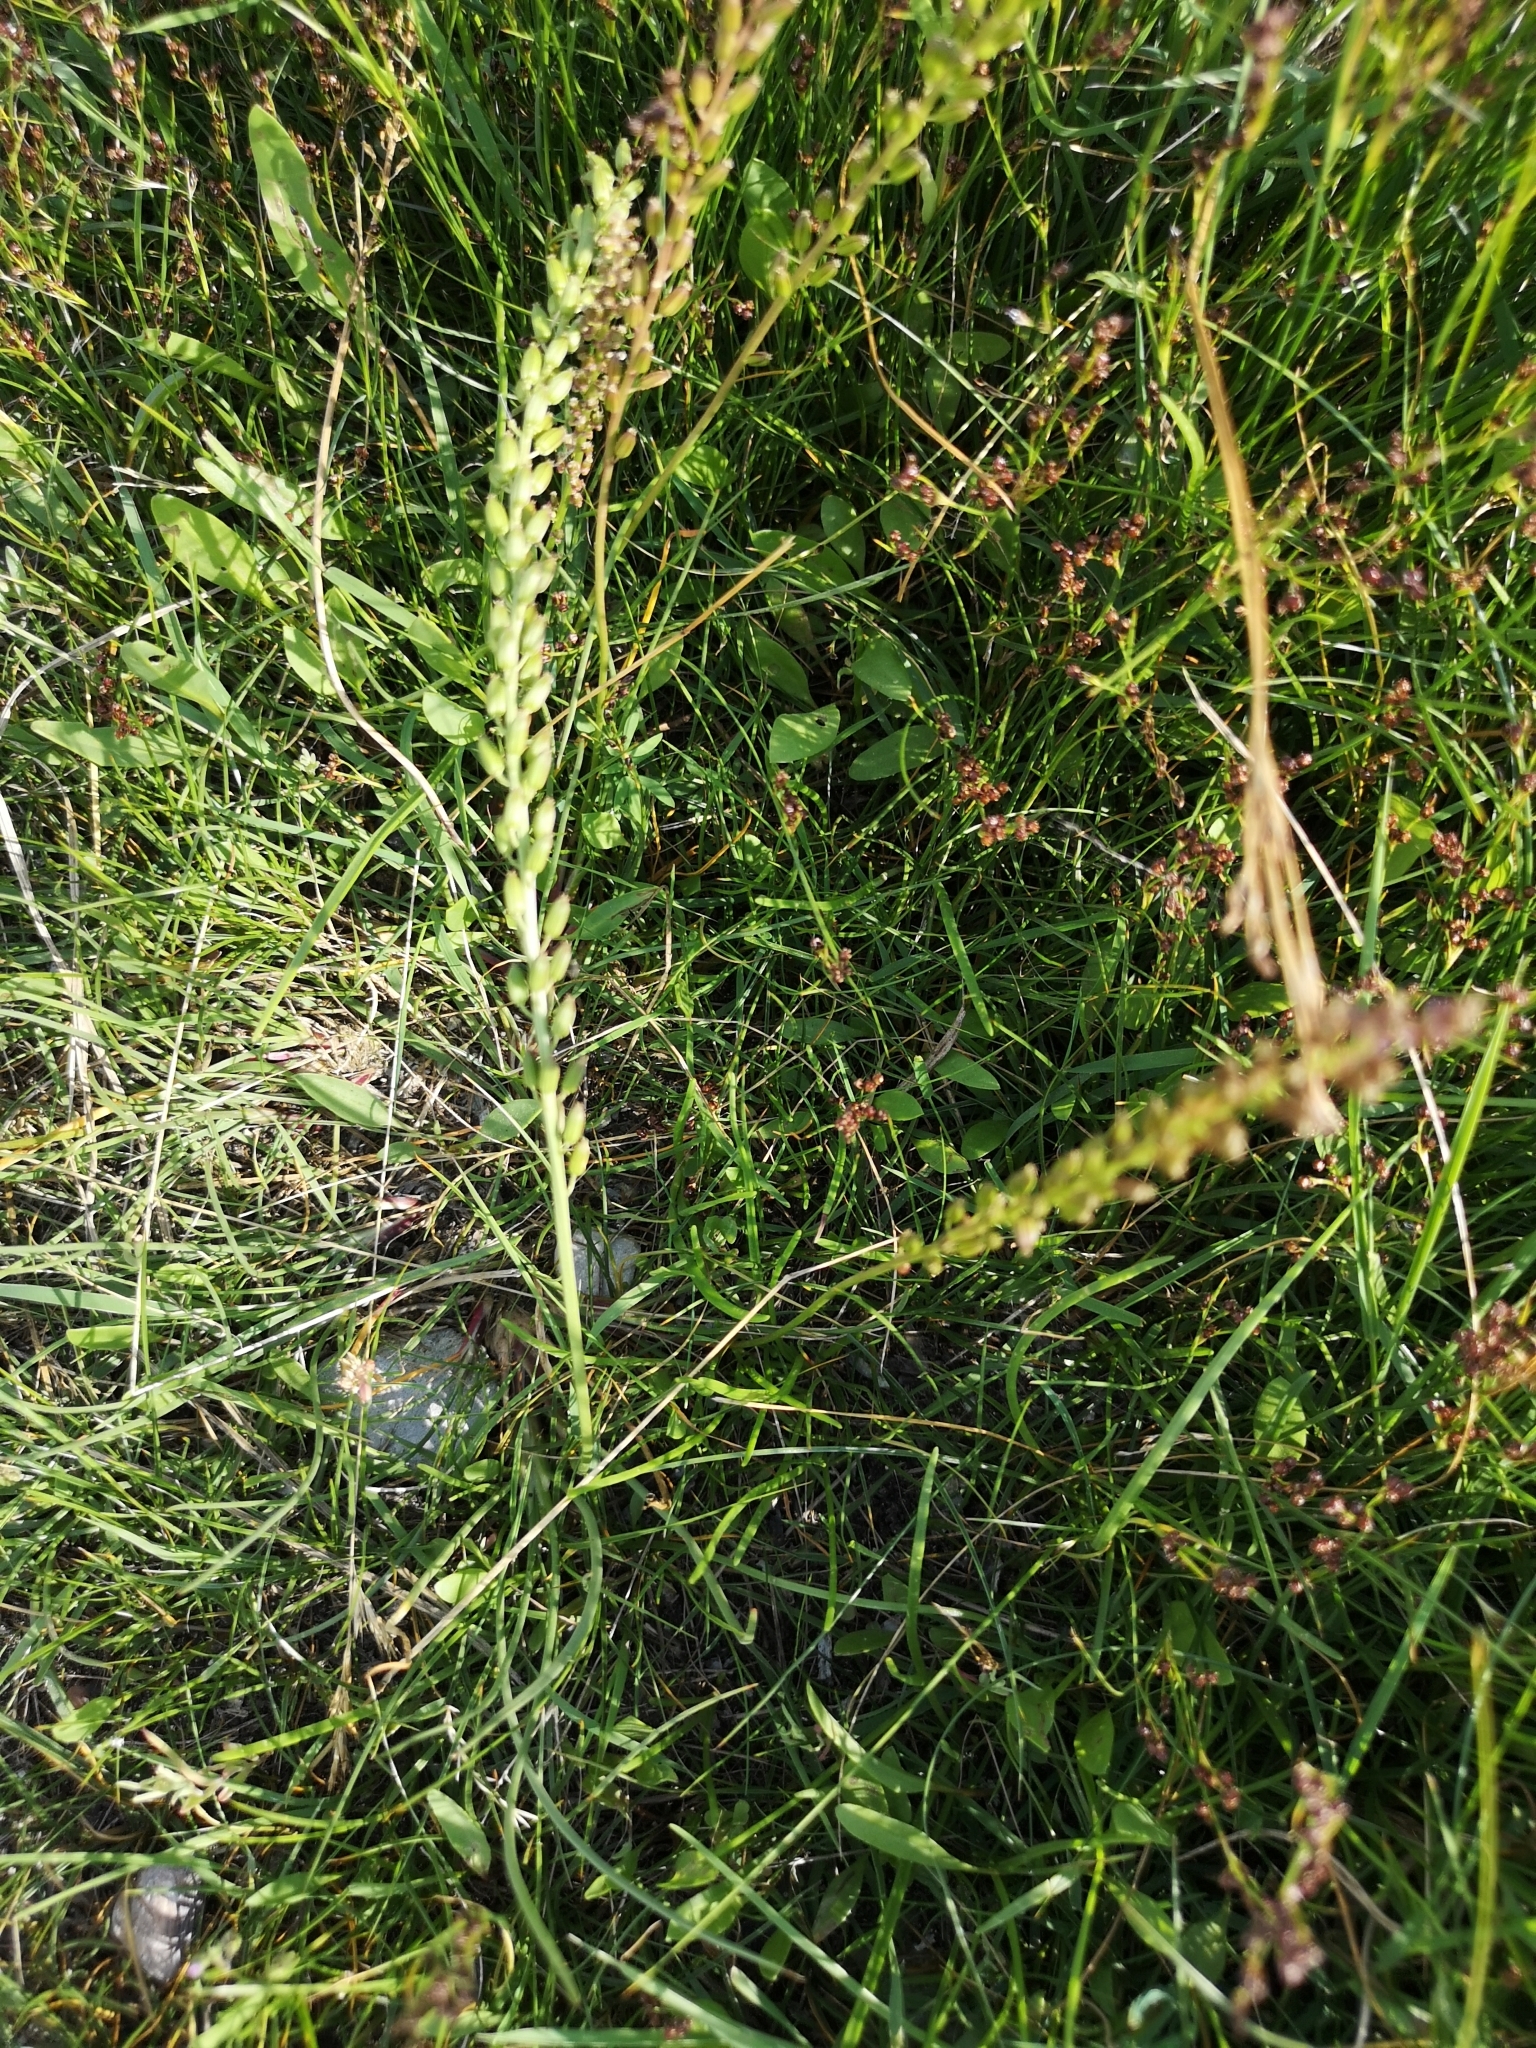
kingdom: Plantae
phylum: Tracheophyta
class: Liliopsida
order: Alismatales
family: Juncaginaceae
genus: Triglochin
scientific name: Triglochin maritima
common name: Sea arrowgrass
